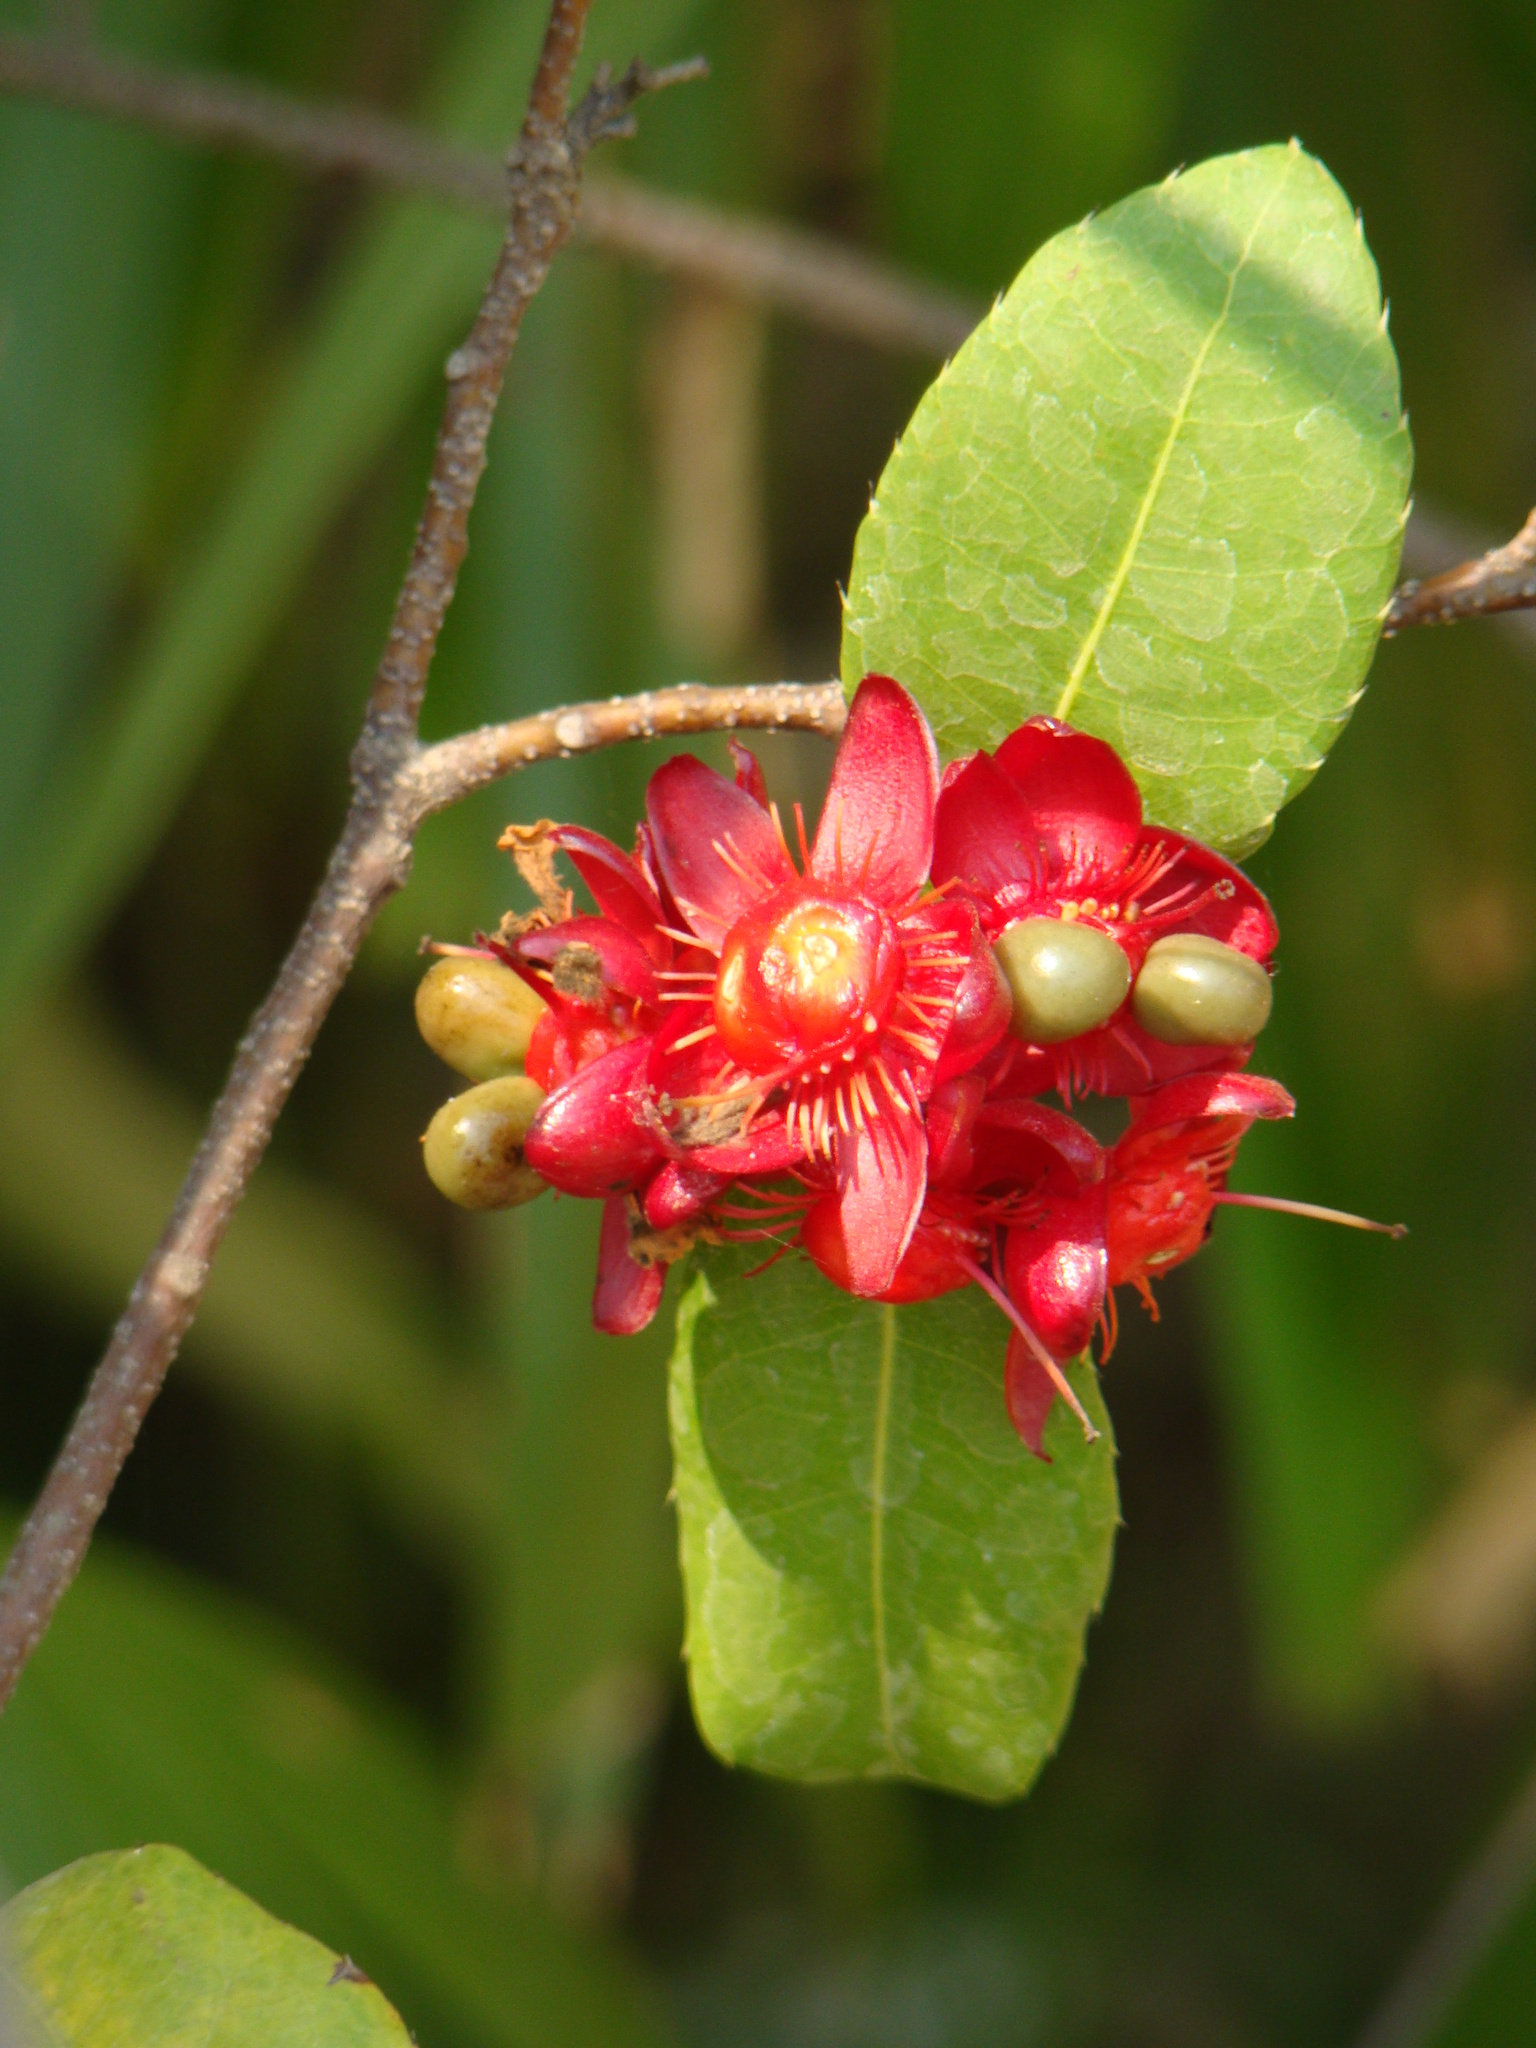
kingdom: Plantae
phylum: Tracheophyta
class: Magnoliopsida
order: Malpighiales
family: Ochnaceae
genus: Ochna
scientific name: Ochna serrulata
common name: Mickey mouse plant
